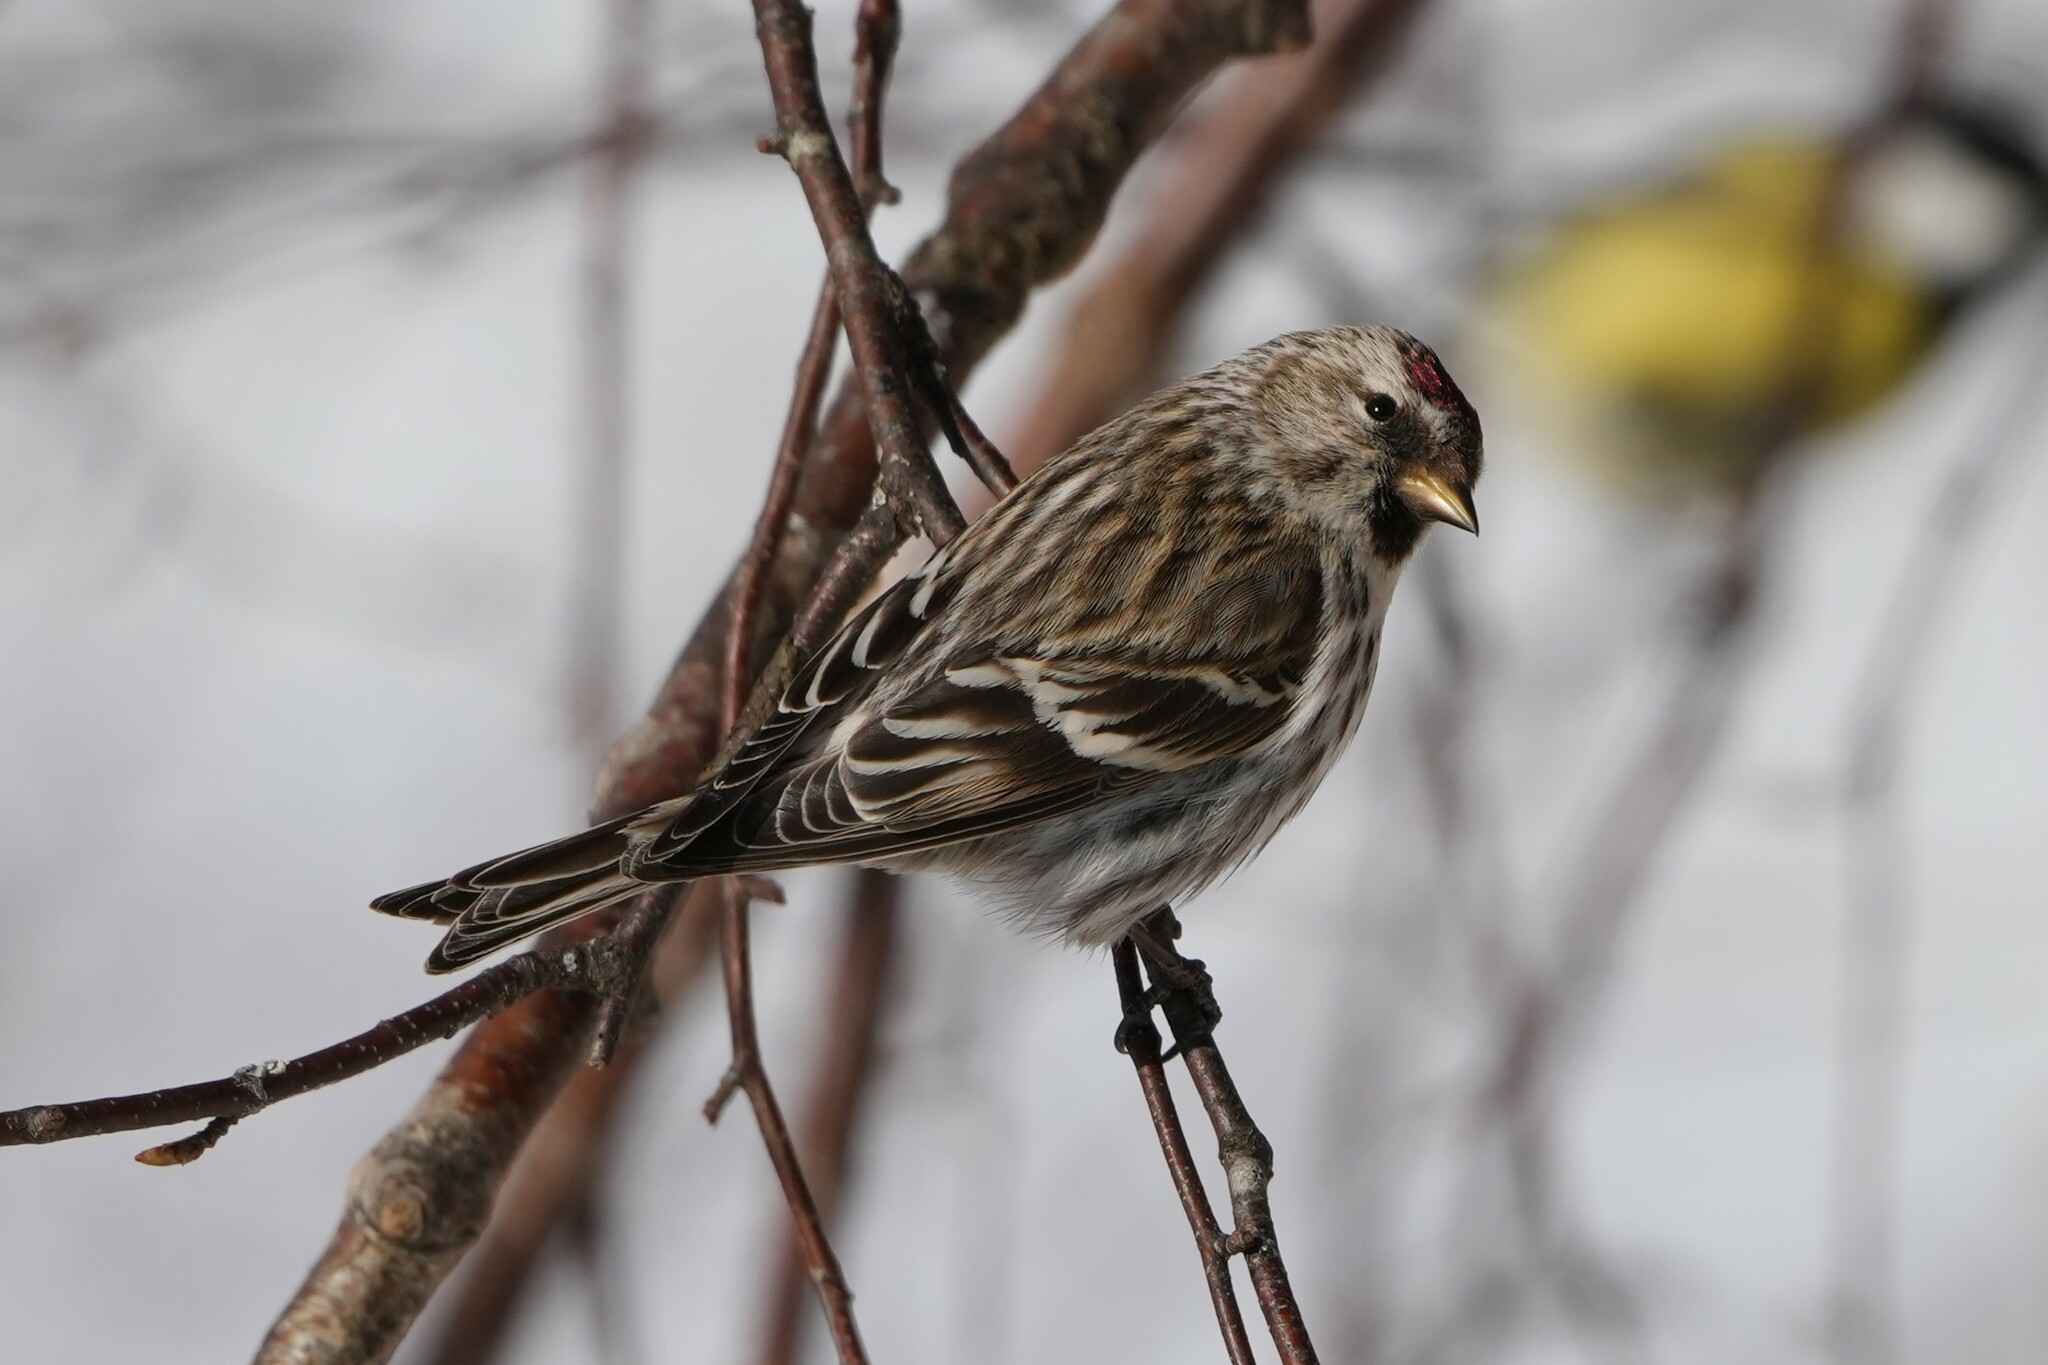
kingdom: Animalia
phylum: Chordata
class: Aves
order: Passeriformes
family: Fringillidae
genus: Acanthis
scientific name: Acanthis flammea
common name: Common redpoll
